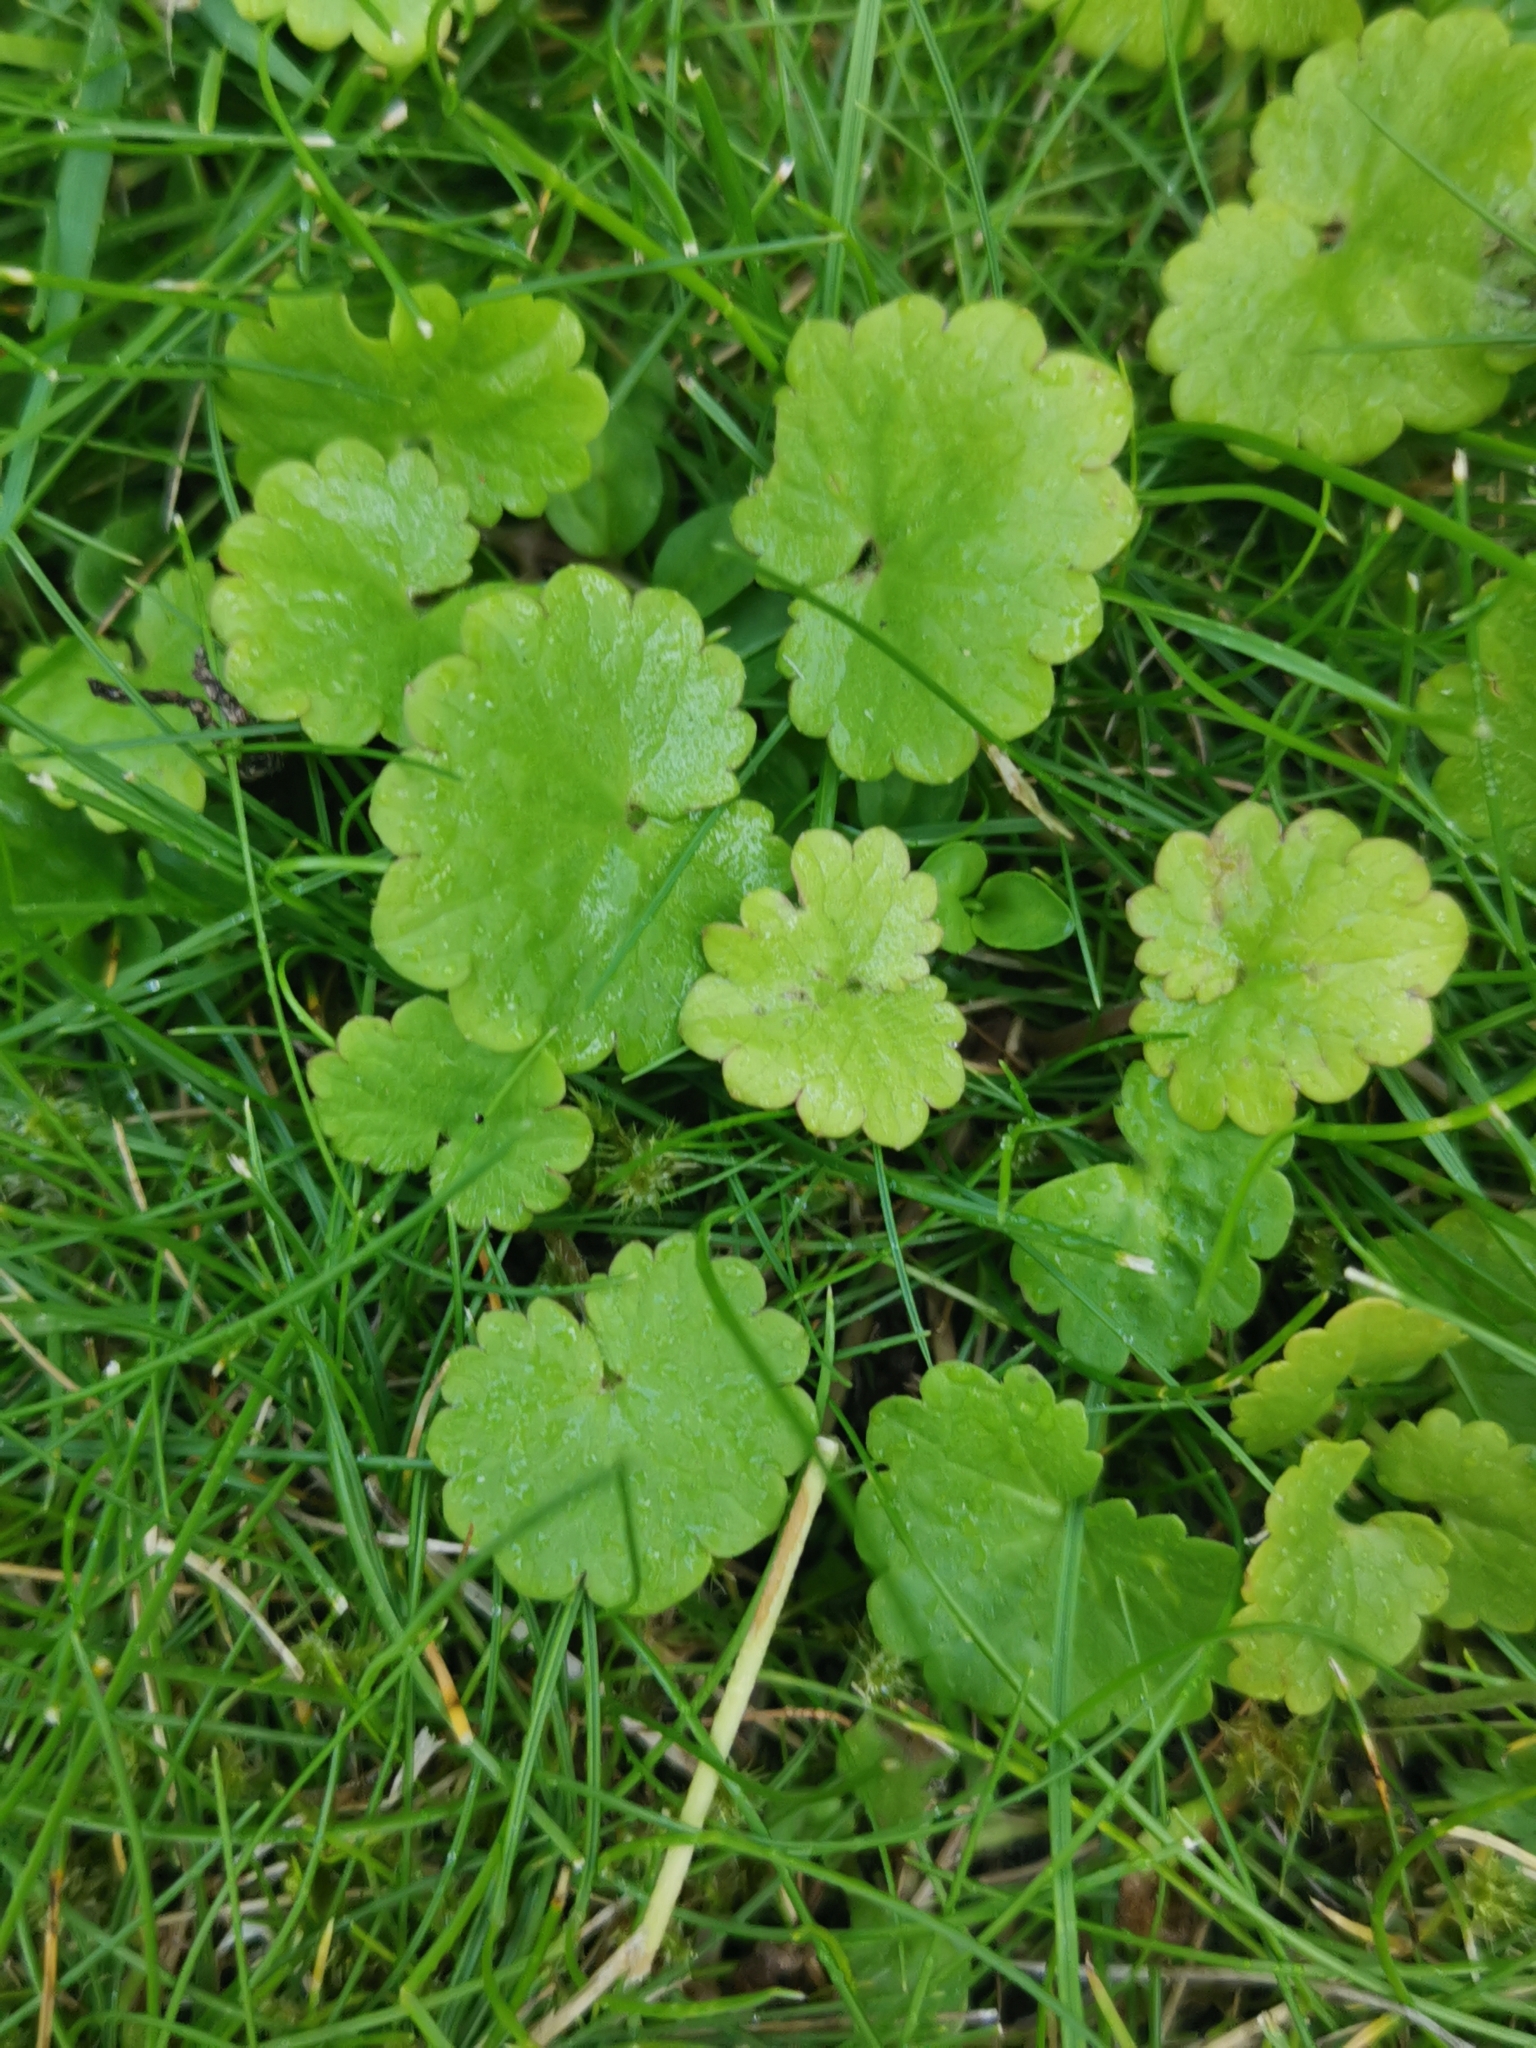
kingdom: Plantae
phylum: Tracheophyta
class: Magnoliopsida
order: Lamiales
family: Lamiaceae
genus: Glechoma
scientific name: Glechoma hederacea
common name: Ground ivy
